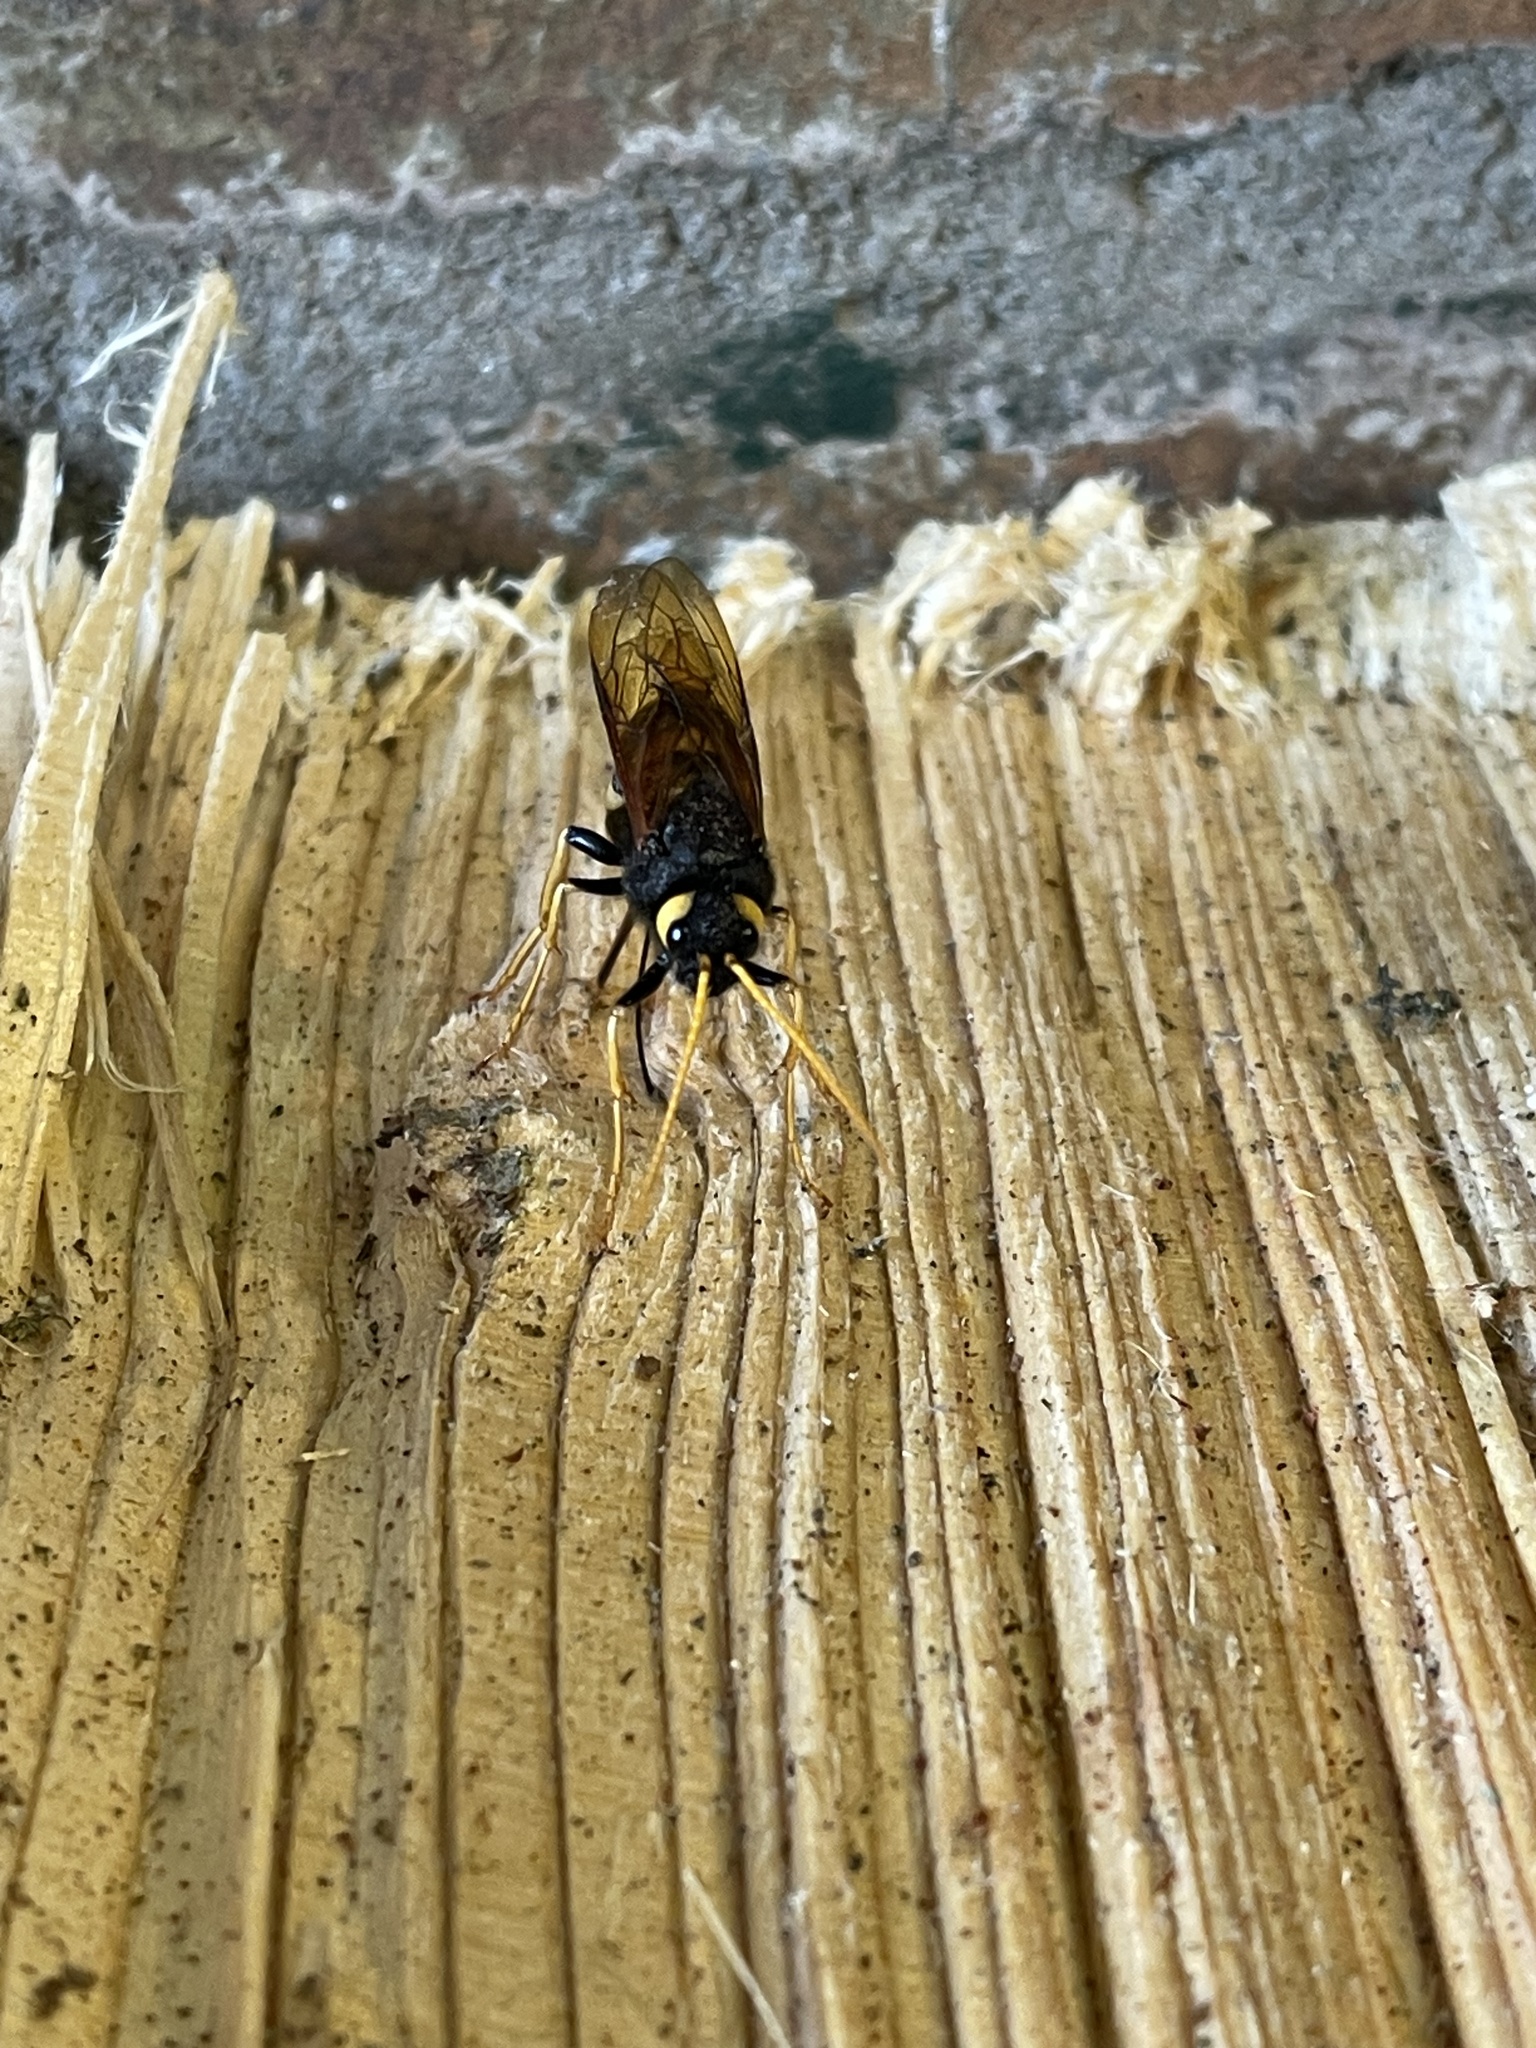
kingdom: Animalia
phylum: Arthropoda
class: Insecta
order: Hymenoptera
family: Siricidae
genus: Urocerus
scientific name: Urocerus gigas
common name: Giant woodwasp
